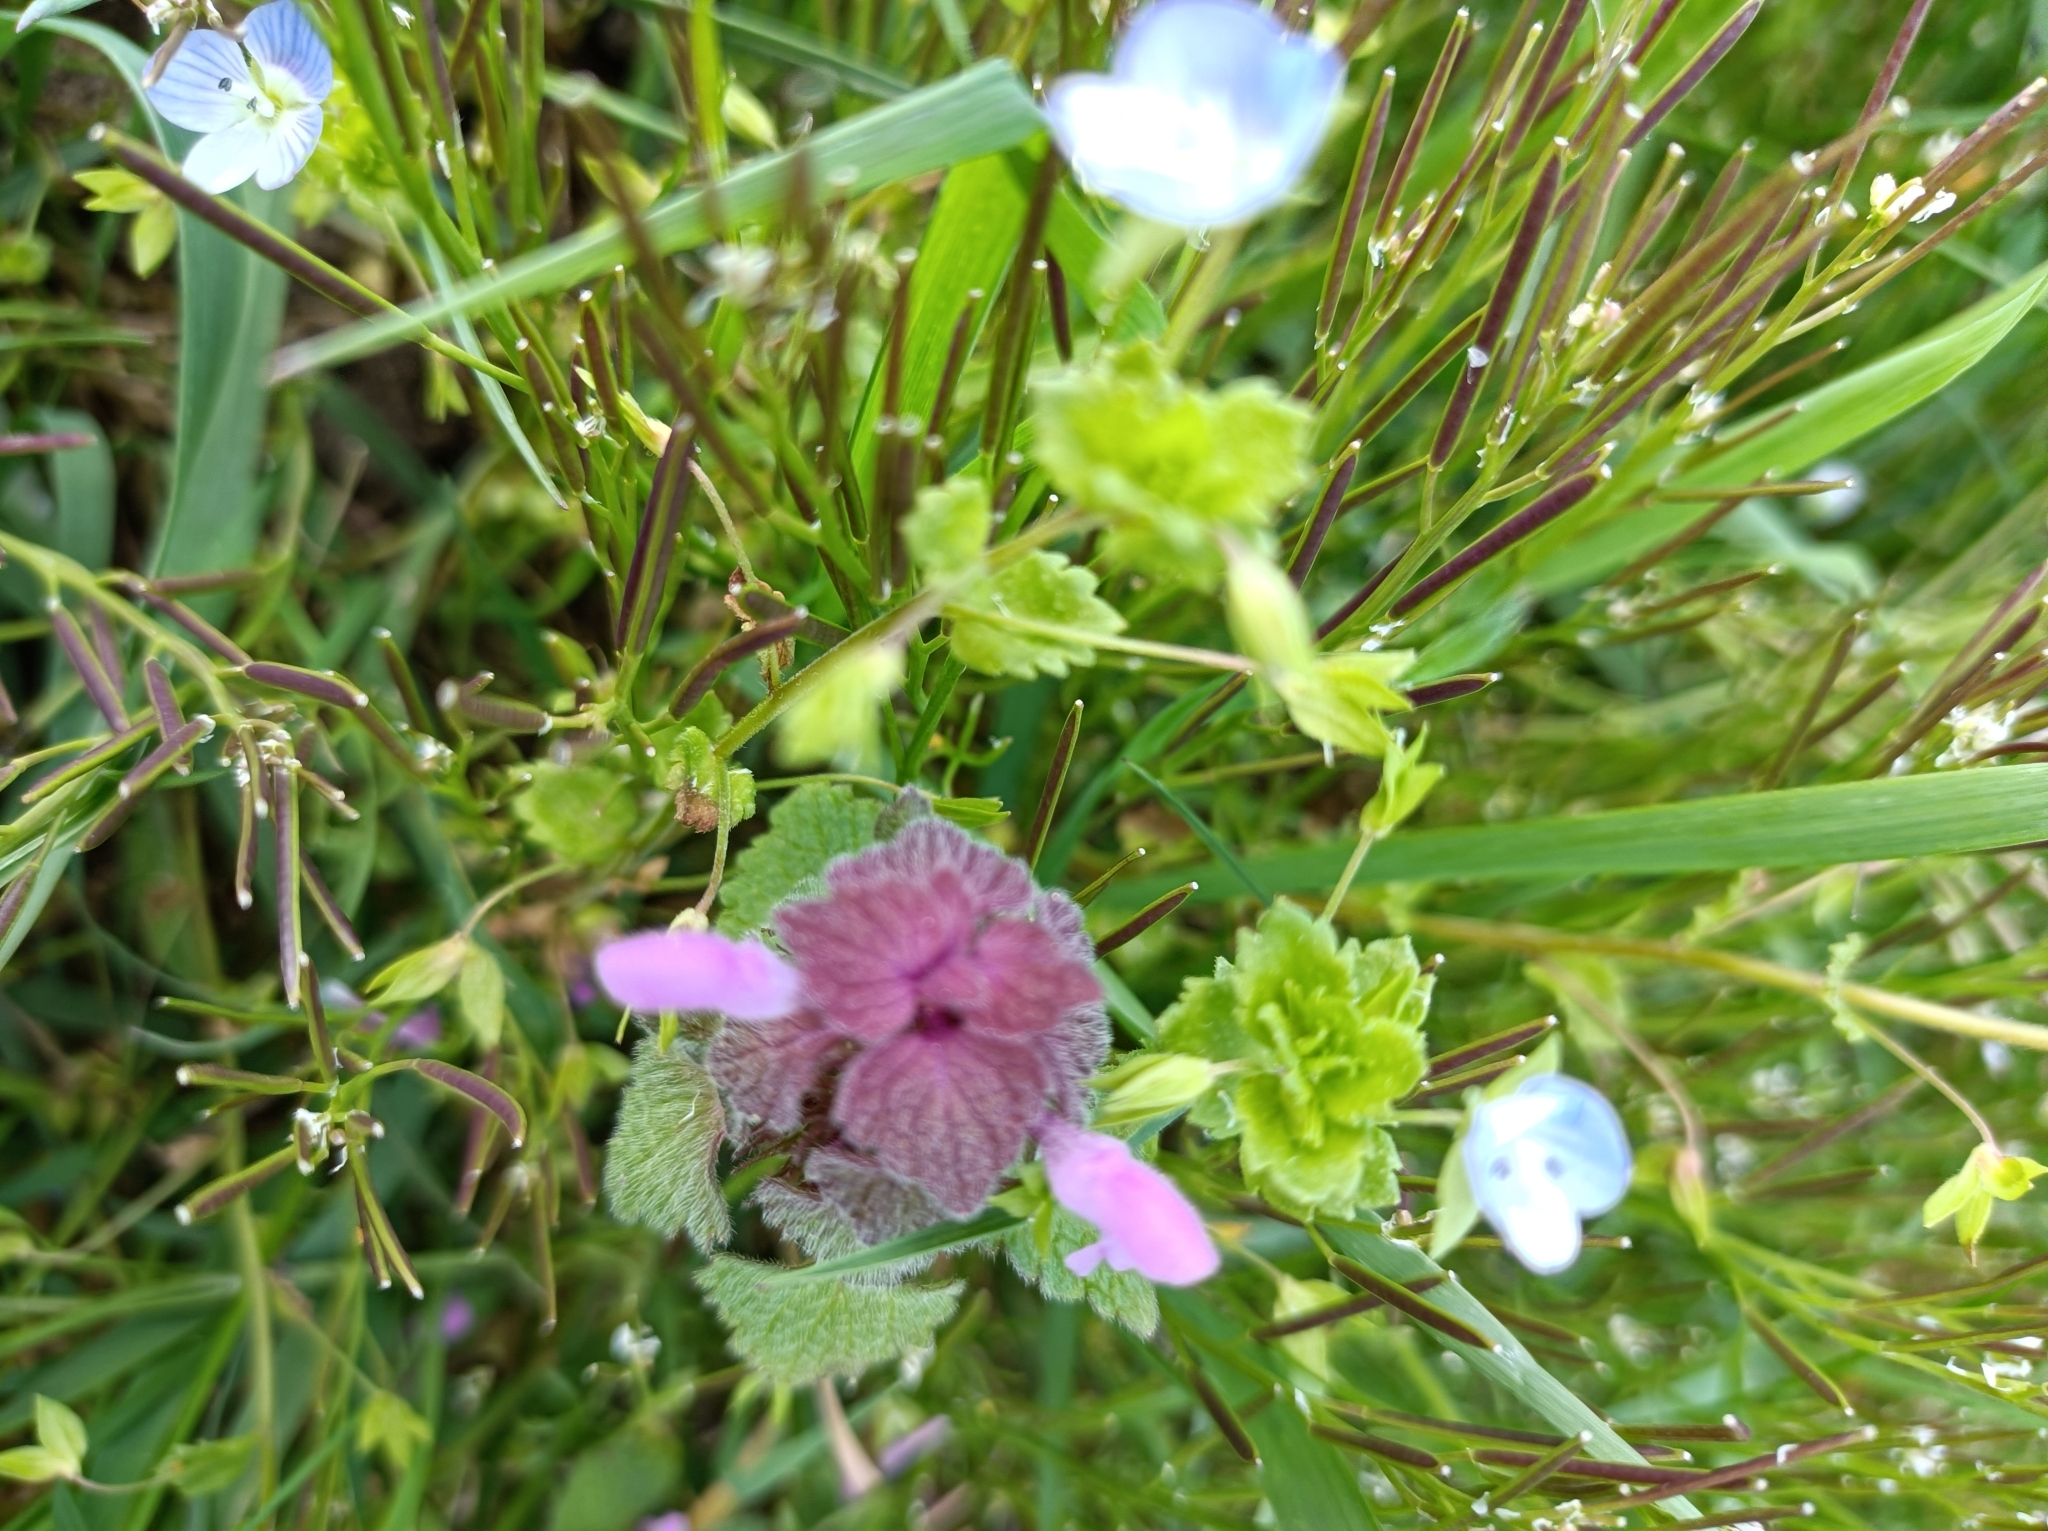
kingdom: Plantae
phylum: Tracheophyta
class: Magnoliopsida
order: Lamiales
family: Lamiaceae
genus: Lamium
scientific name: Lamium purpureum
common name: Red dead-nettle
